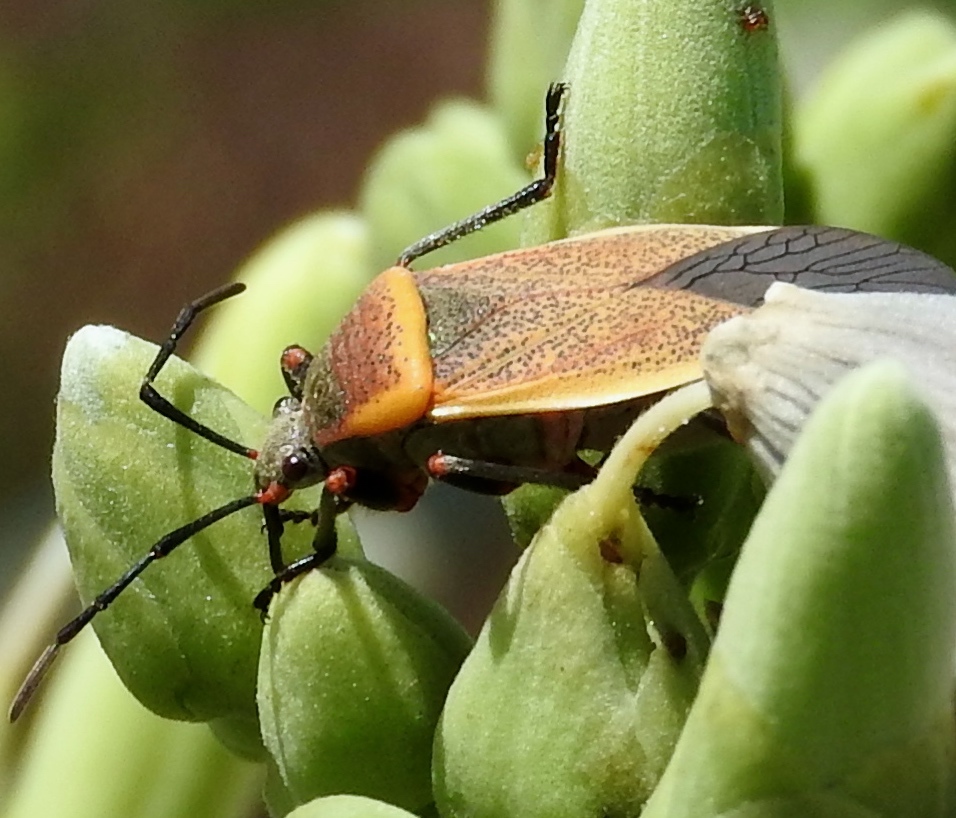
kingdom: Animalia
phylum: Arthropoda
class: Insecta
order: Hemiptera
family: Largidae
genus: Largus
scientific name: Largus
